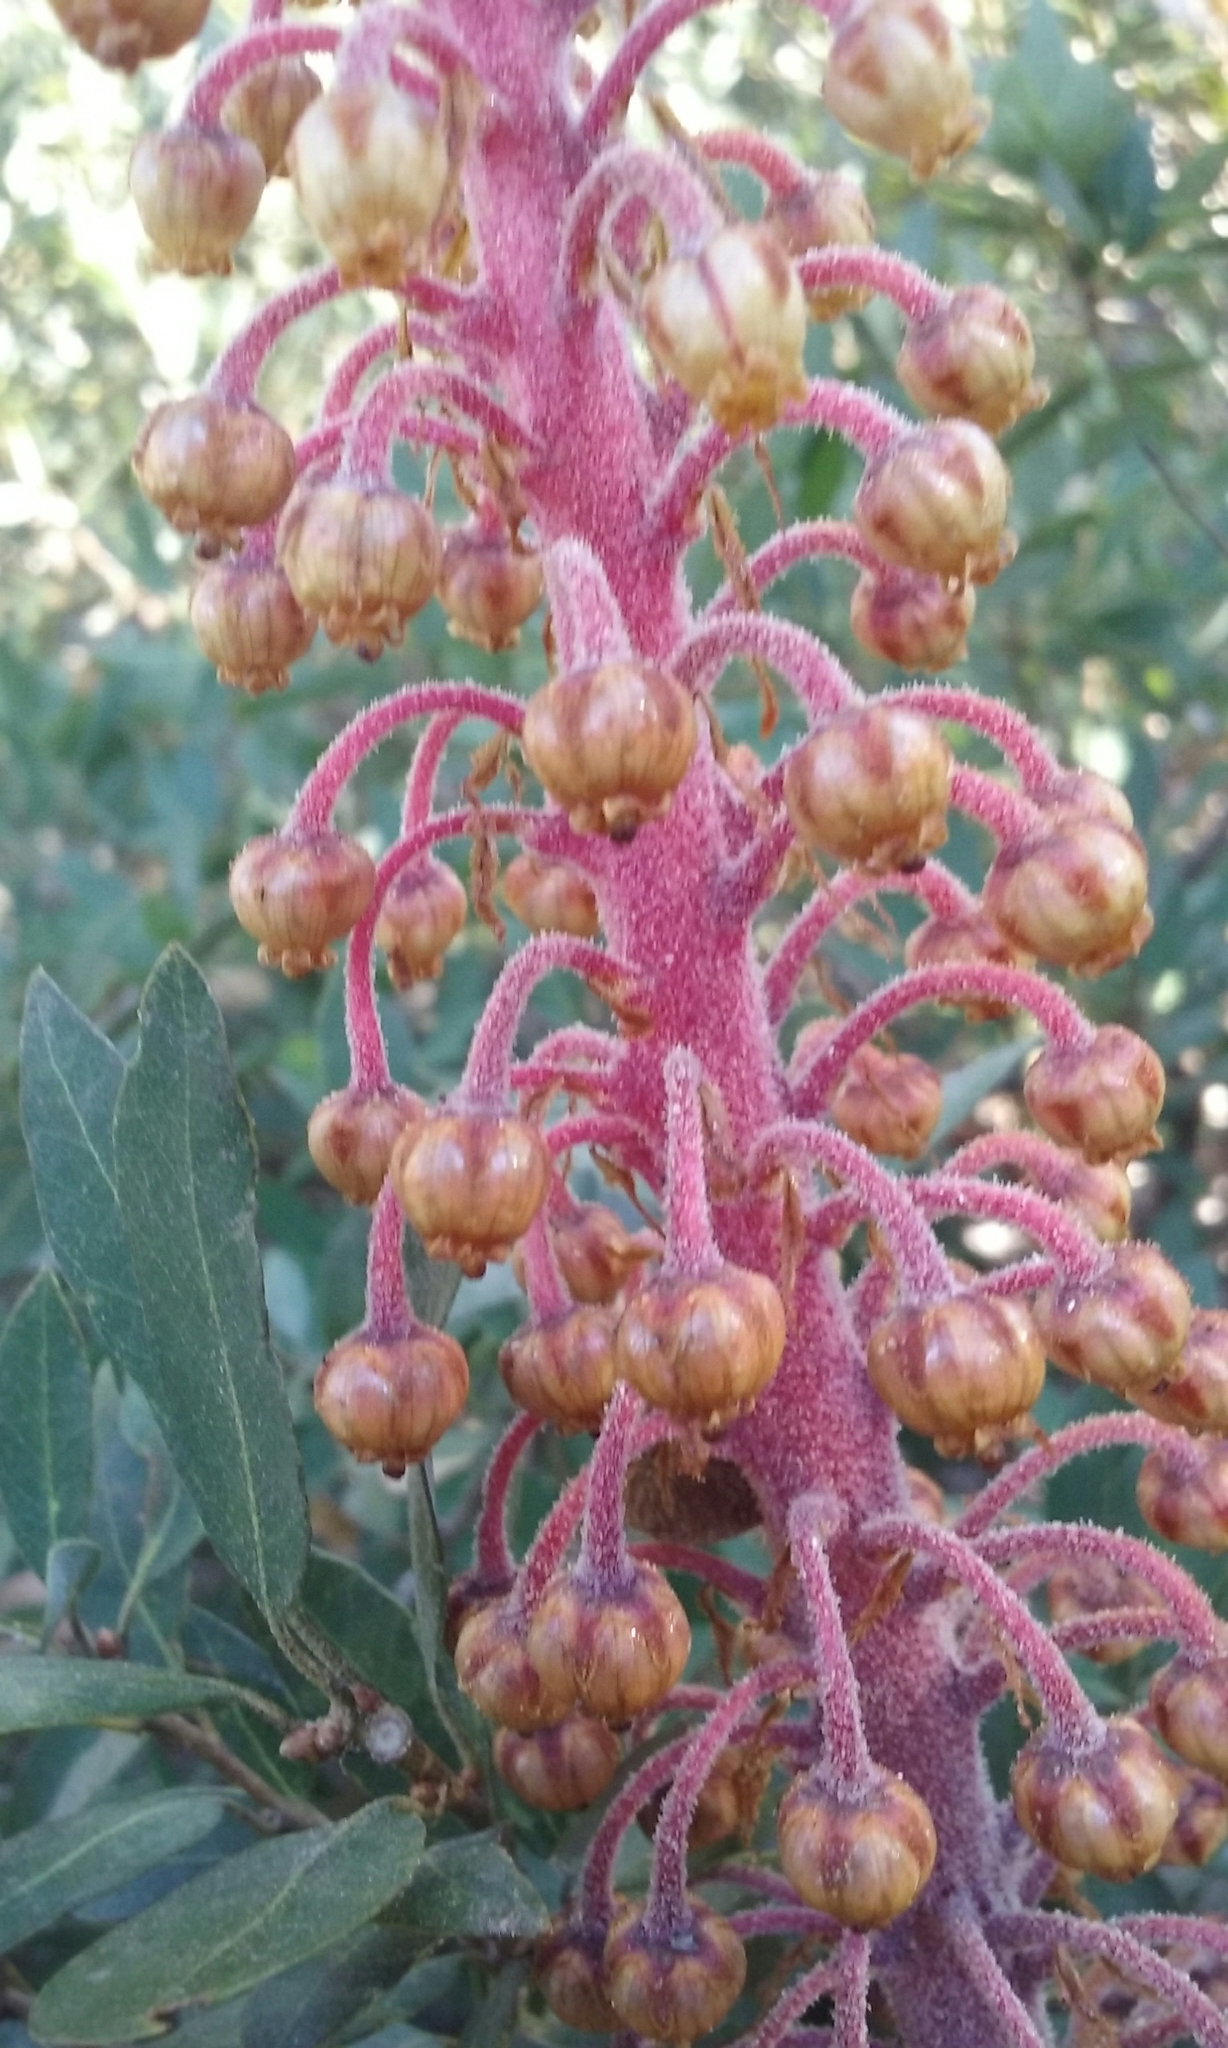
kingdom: Plantae
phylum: Tracheophyta
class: Magnoliopsida
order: Ericales
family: Ericaceae
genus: Pterospora
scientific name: Pterospora andromedea
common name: Giant bird's-nest
